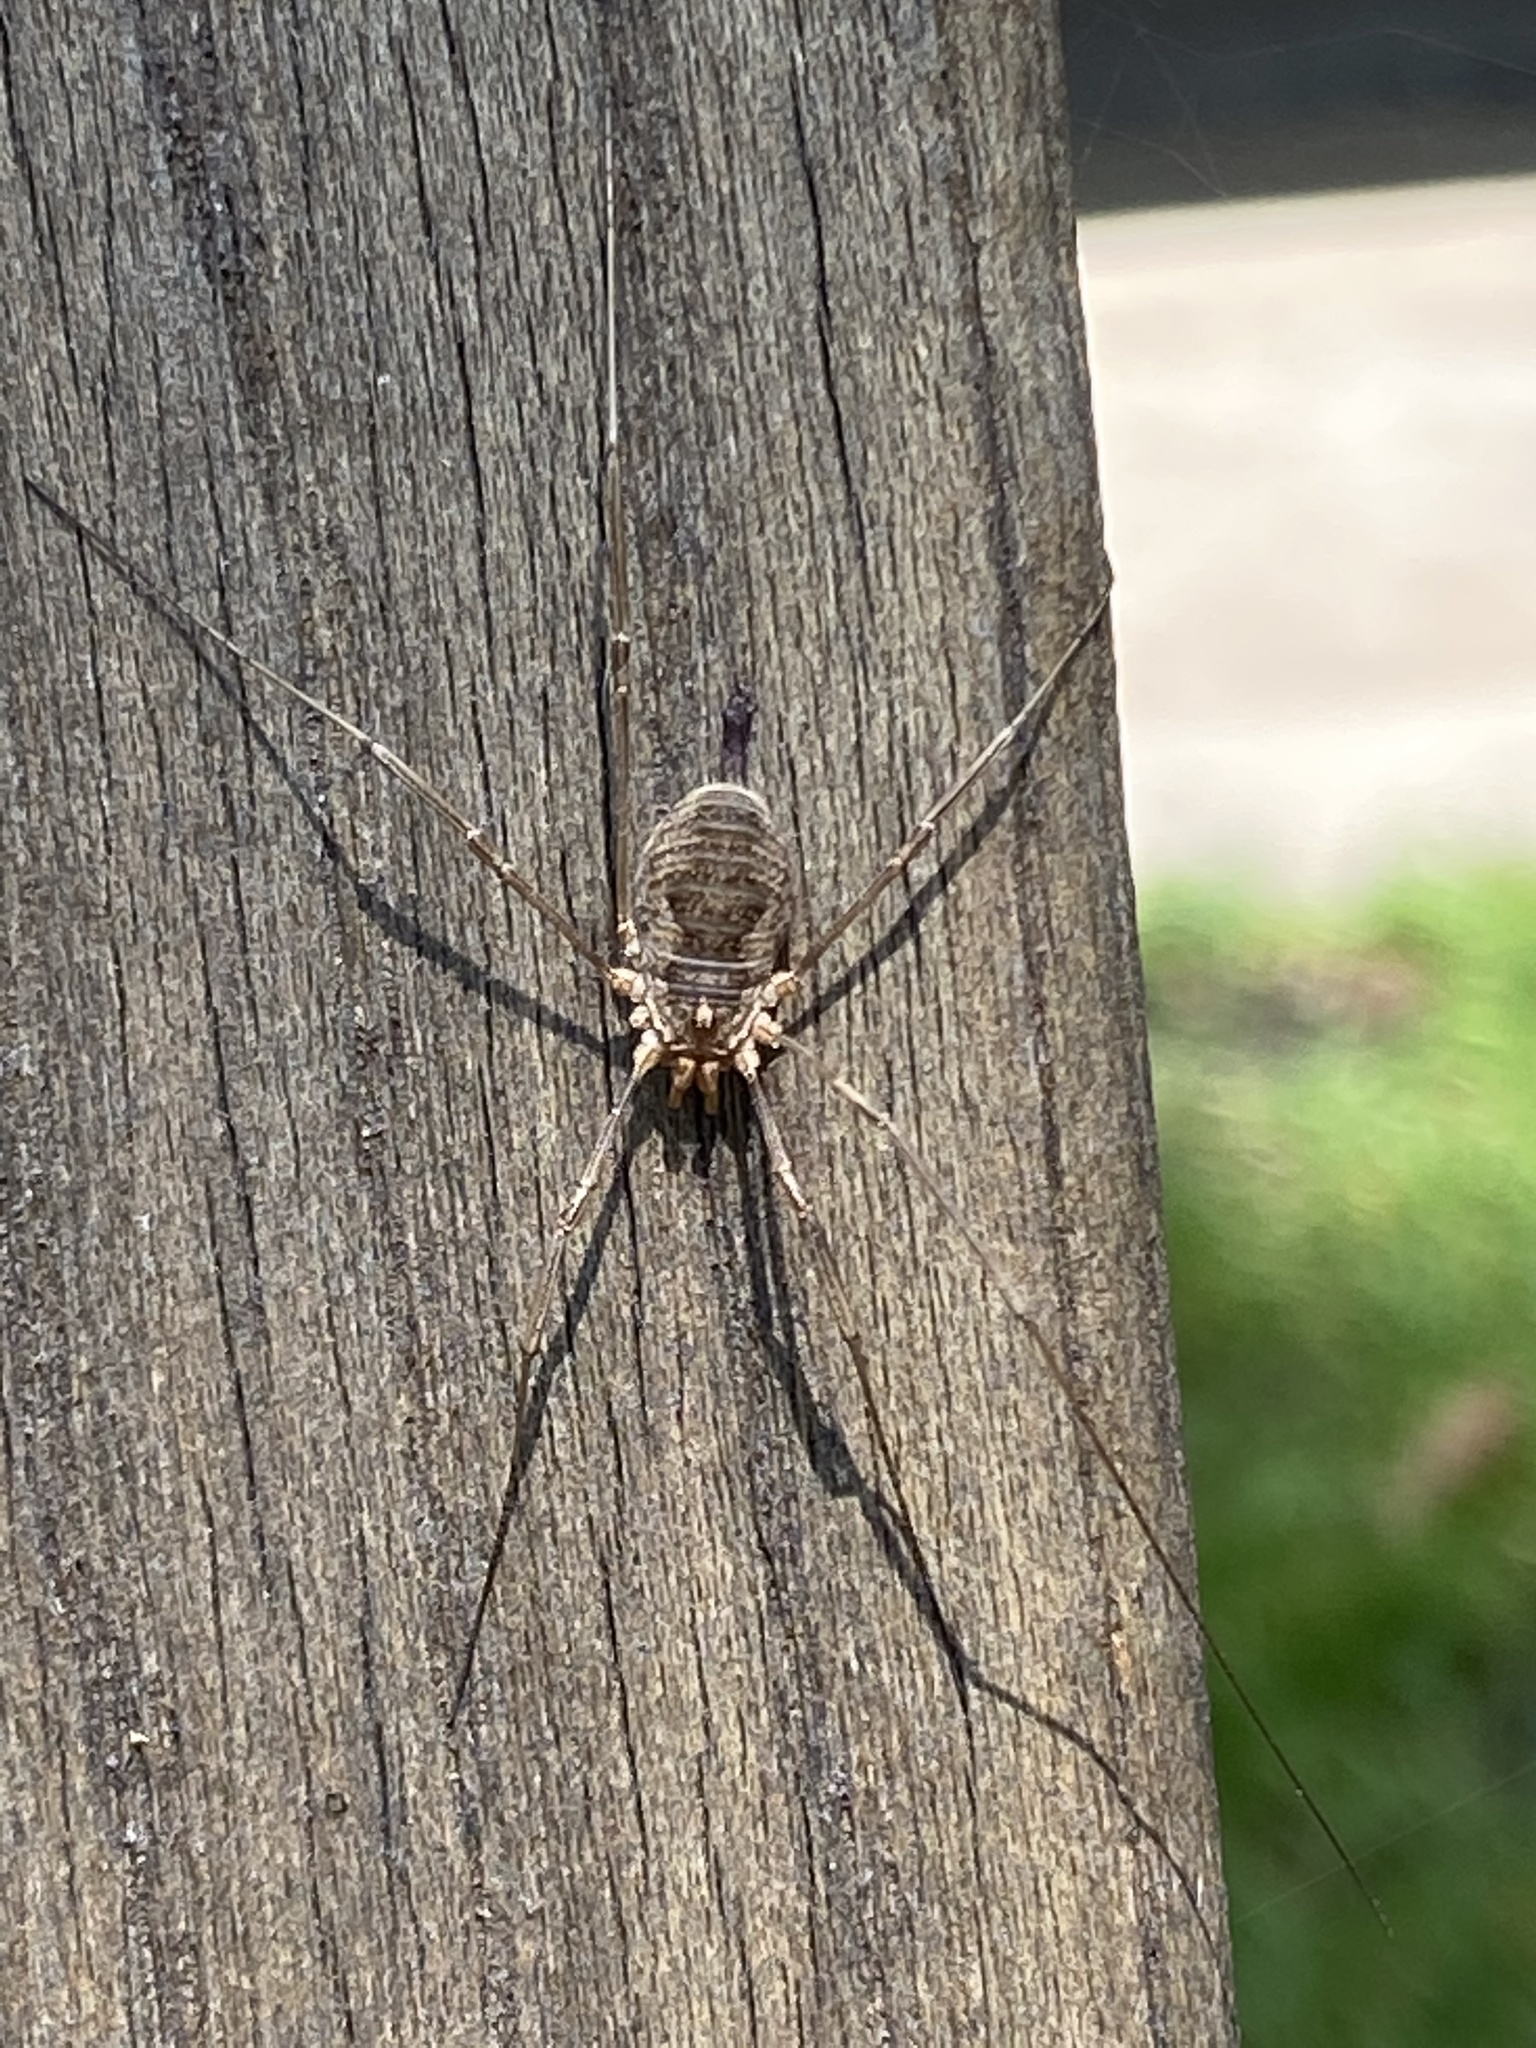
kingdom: Animalia
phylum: Arthropoda
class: Arachnida
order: Opiliones
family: Phalangiidae
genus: Phalangium
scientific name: Phalangium opilio
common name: Daddy longleg
